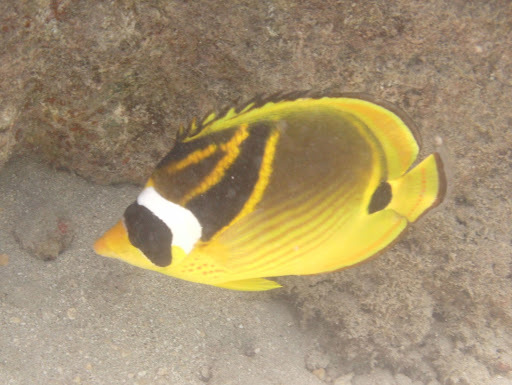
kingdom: Animalia
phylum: Chordata
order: Perciformes
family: Chaetodontidae
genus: Chaetodon
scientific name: Chaetodon lunula
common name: Raccoon butterflyfish
